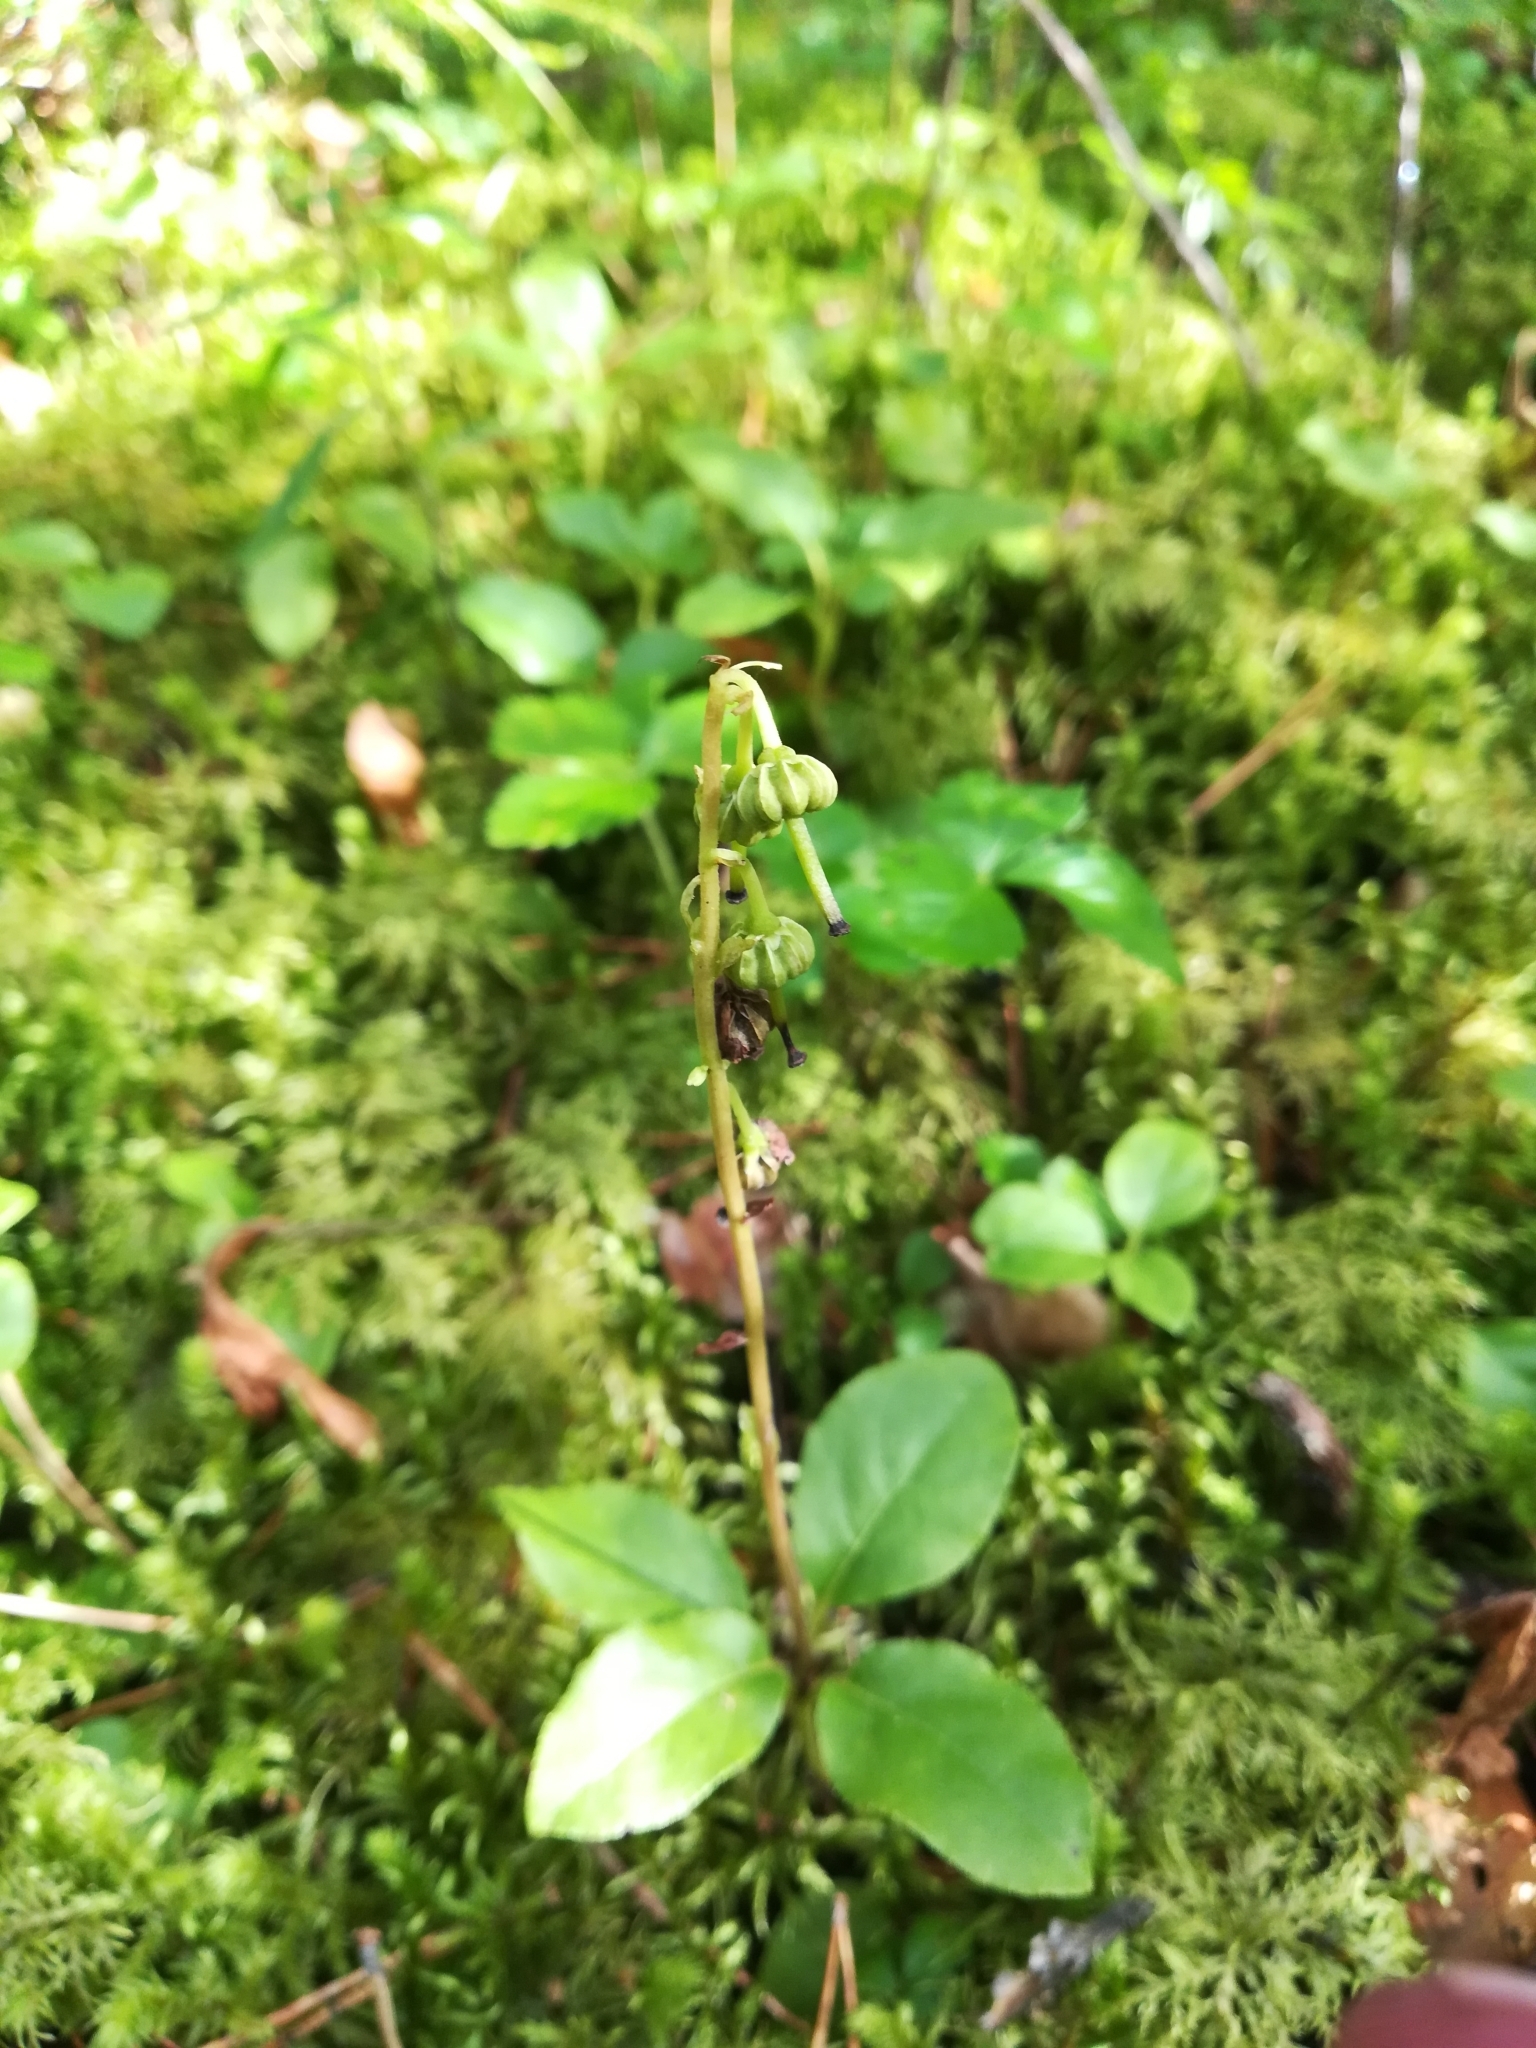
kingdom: Plantae
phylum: Tracheophyta
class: Magnoliopsida
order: Ericales
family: Ericaceae
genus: Orthilia
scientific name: Orthilia secunda
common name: One-sided orthilia
